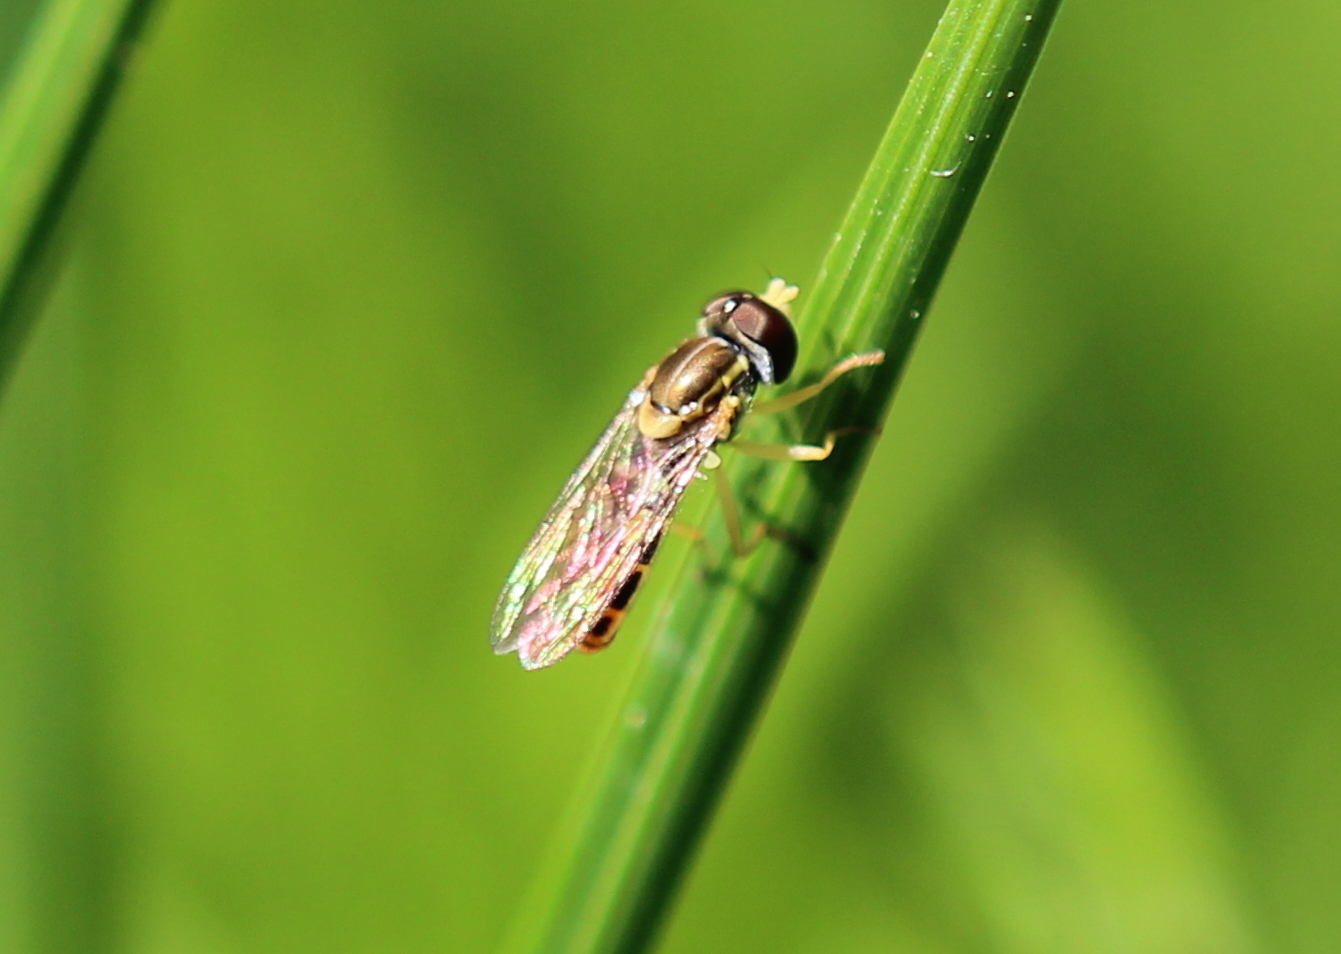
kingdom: Animalia
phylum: Arthropoda
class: Insecta
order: Diptera
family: Syrphidae
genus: Toxomerus
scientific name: Toxomerus marginatus
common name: Syrphid fly
